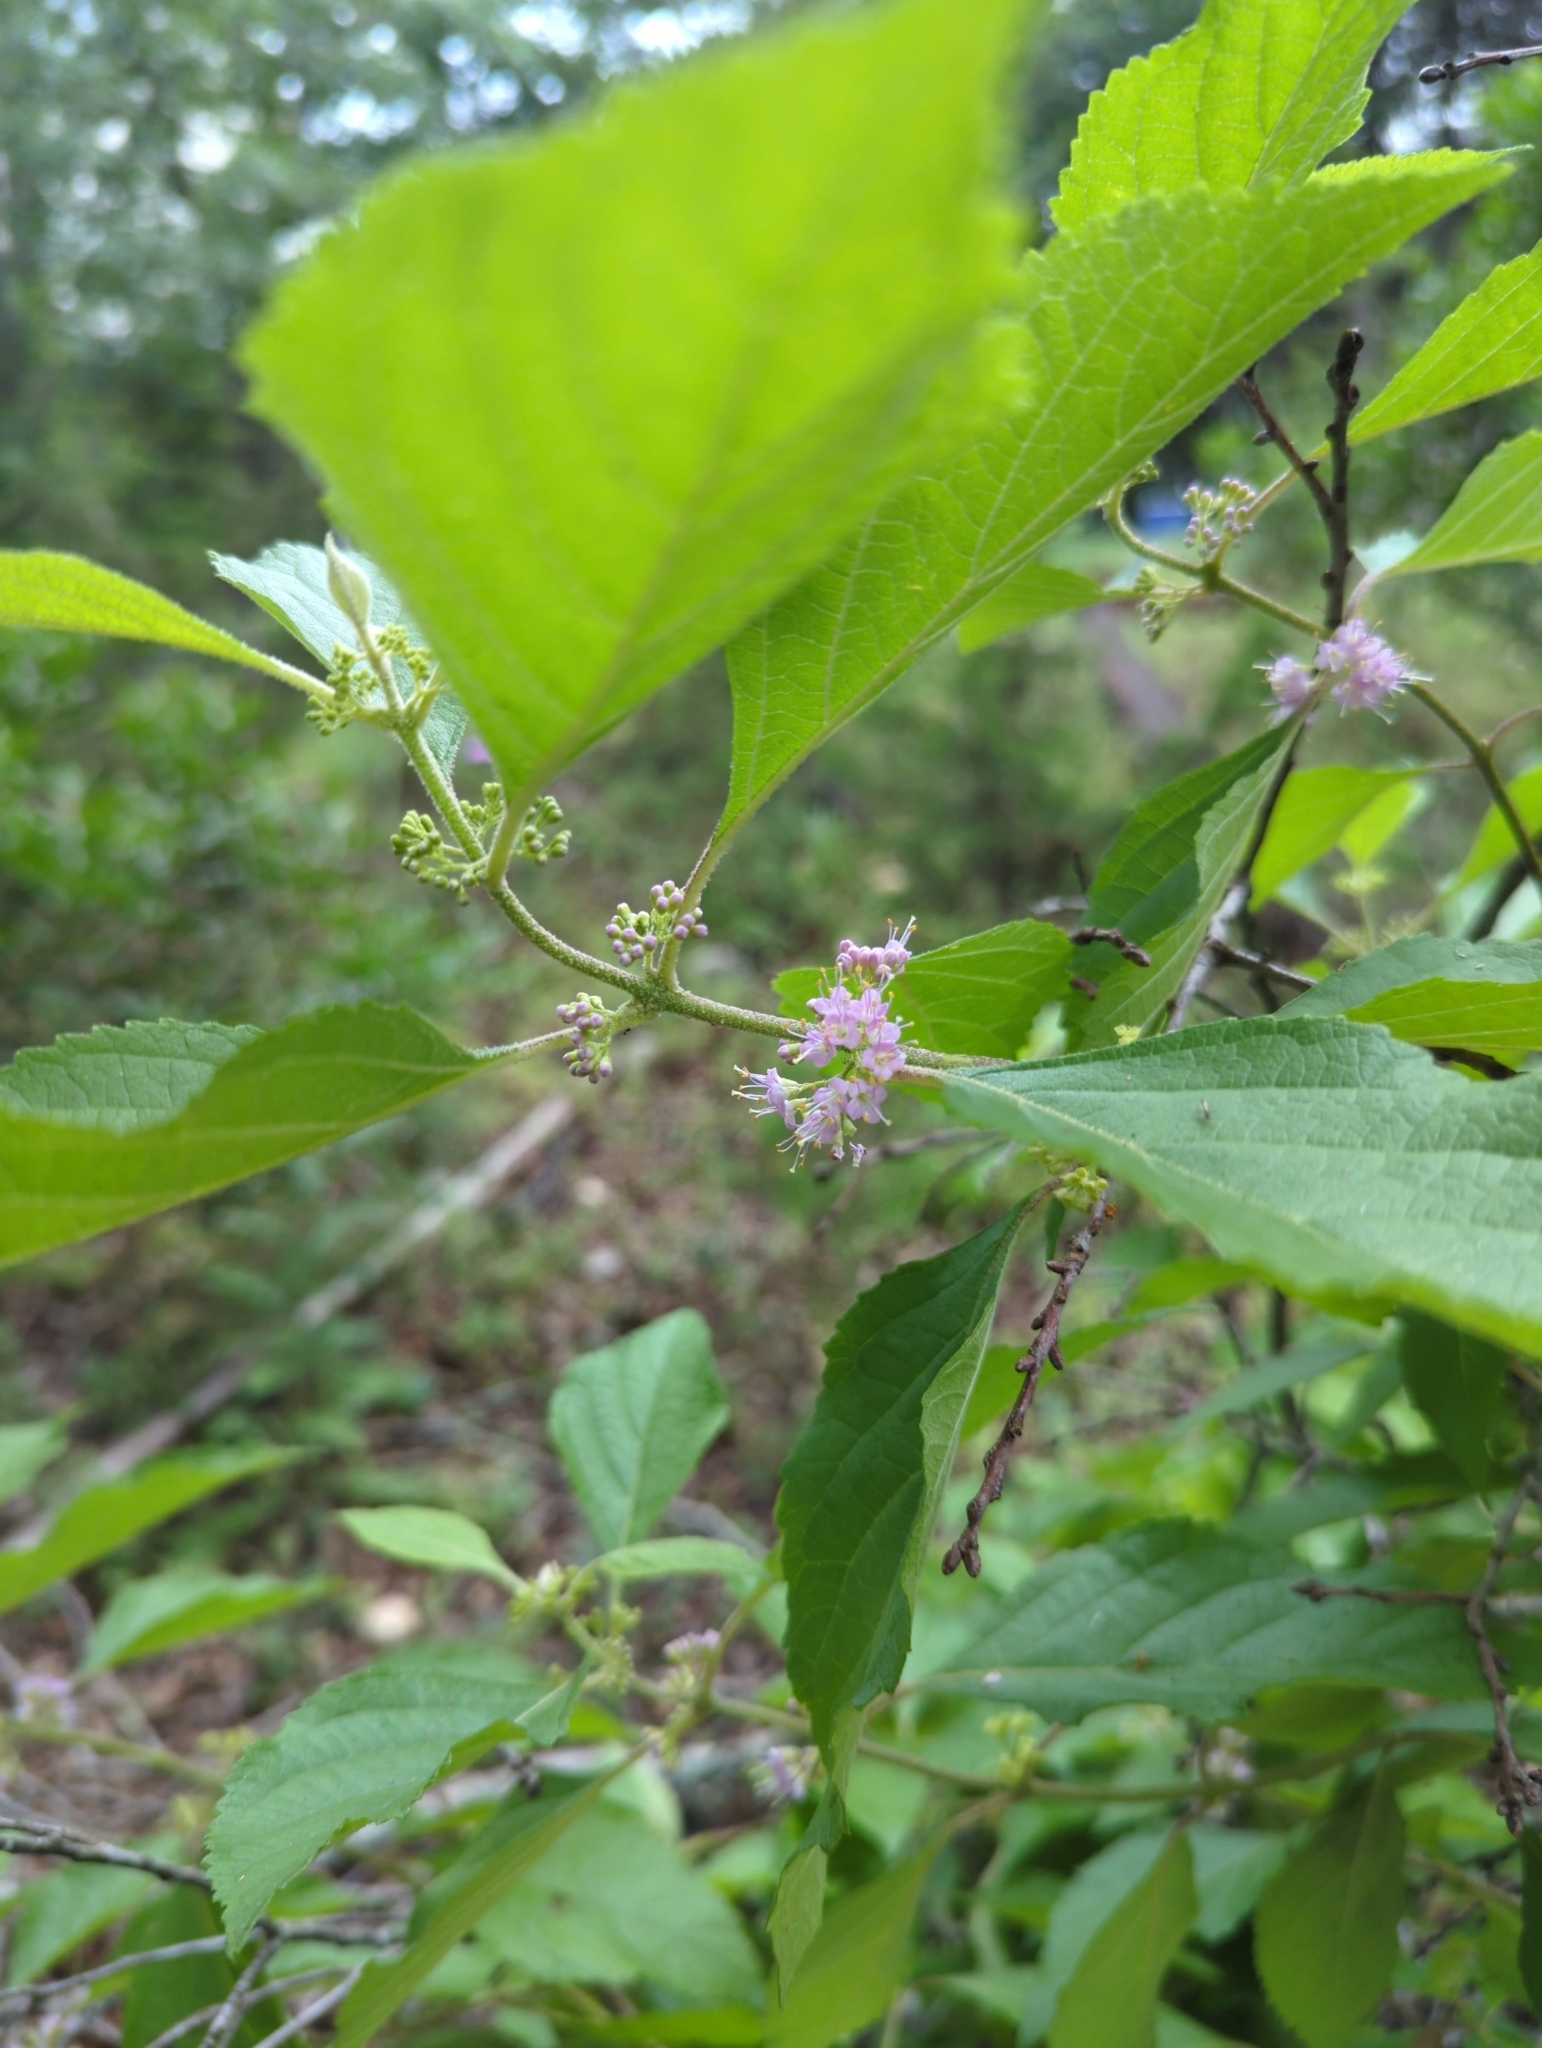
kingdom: Plantae
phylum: Tracheophyta
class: Magnoliopsida
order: Lamiales
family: Lamiaceae
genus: Callicarpa
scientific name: Callicarpa americana
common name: American beautyberry
